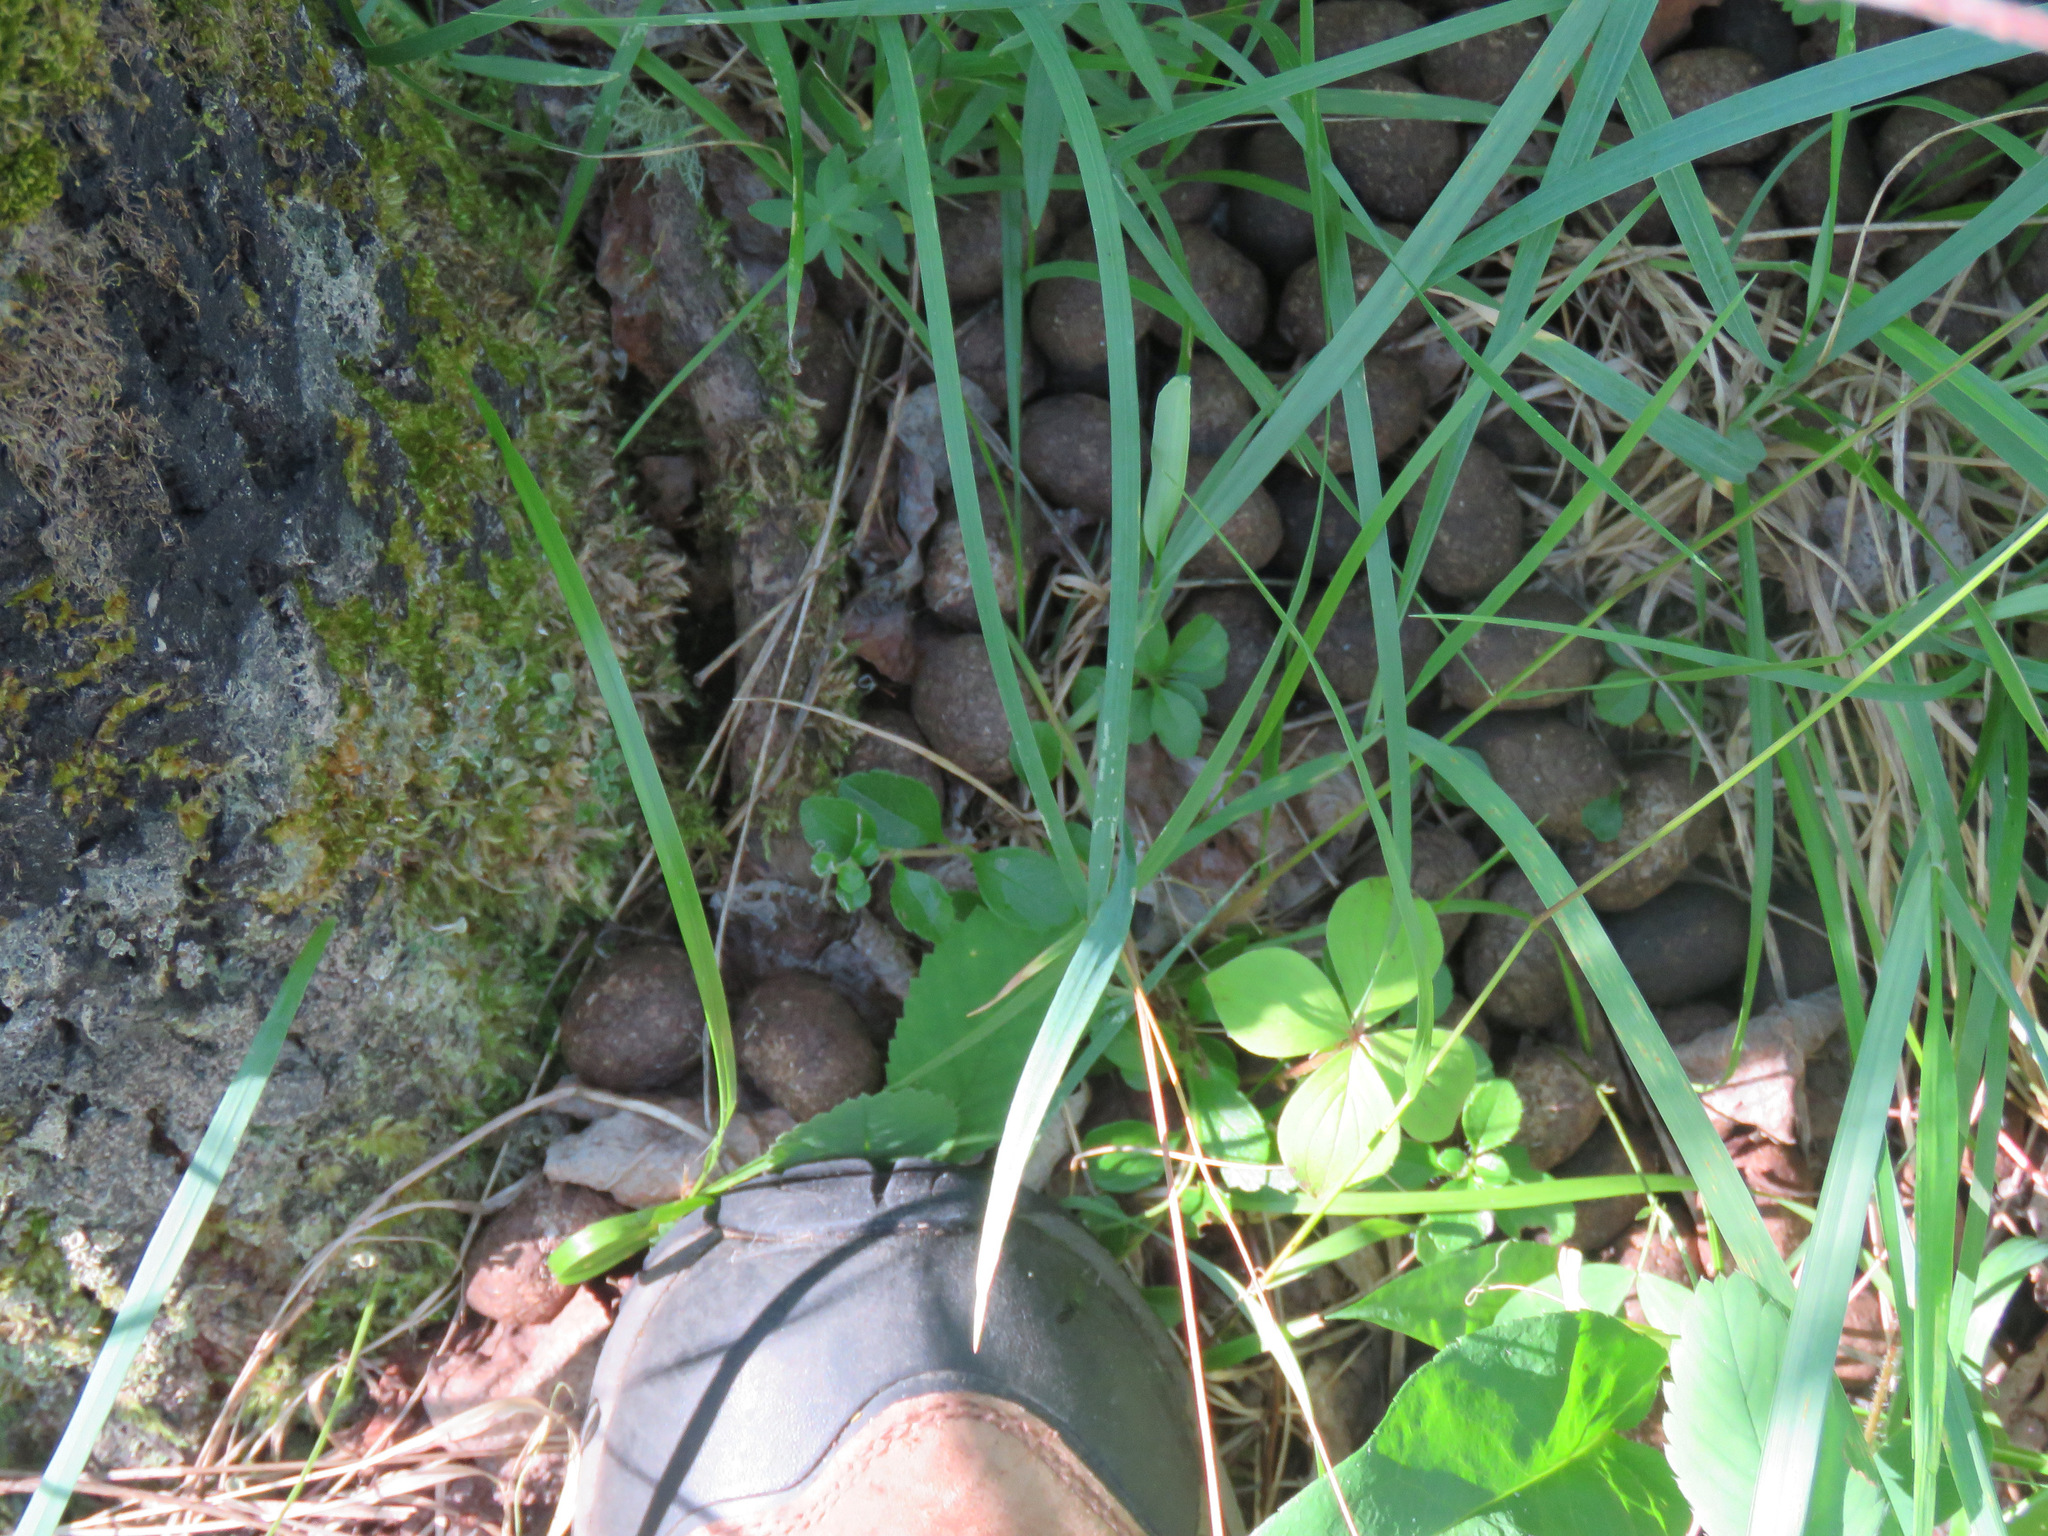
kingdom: Animalia
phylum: Chordata
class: Mammalia
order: Artiodactyla
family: Cervidae
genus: Alces
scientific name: Alces alces
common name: Moose
